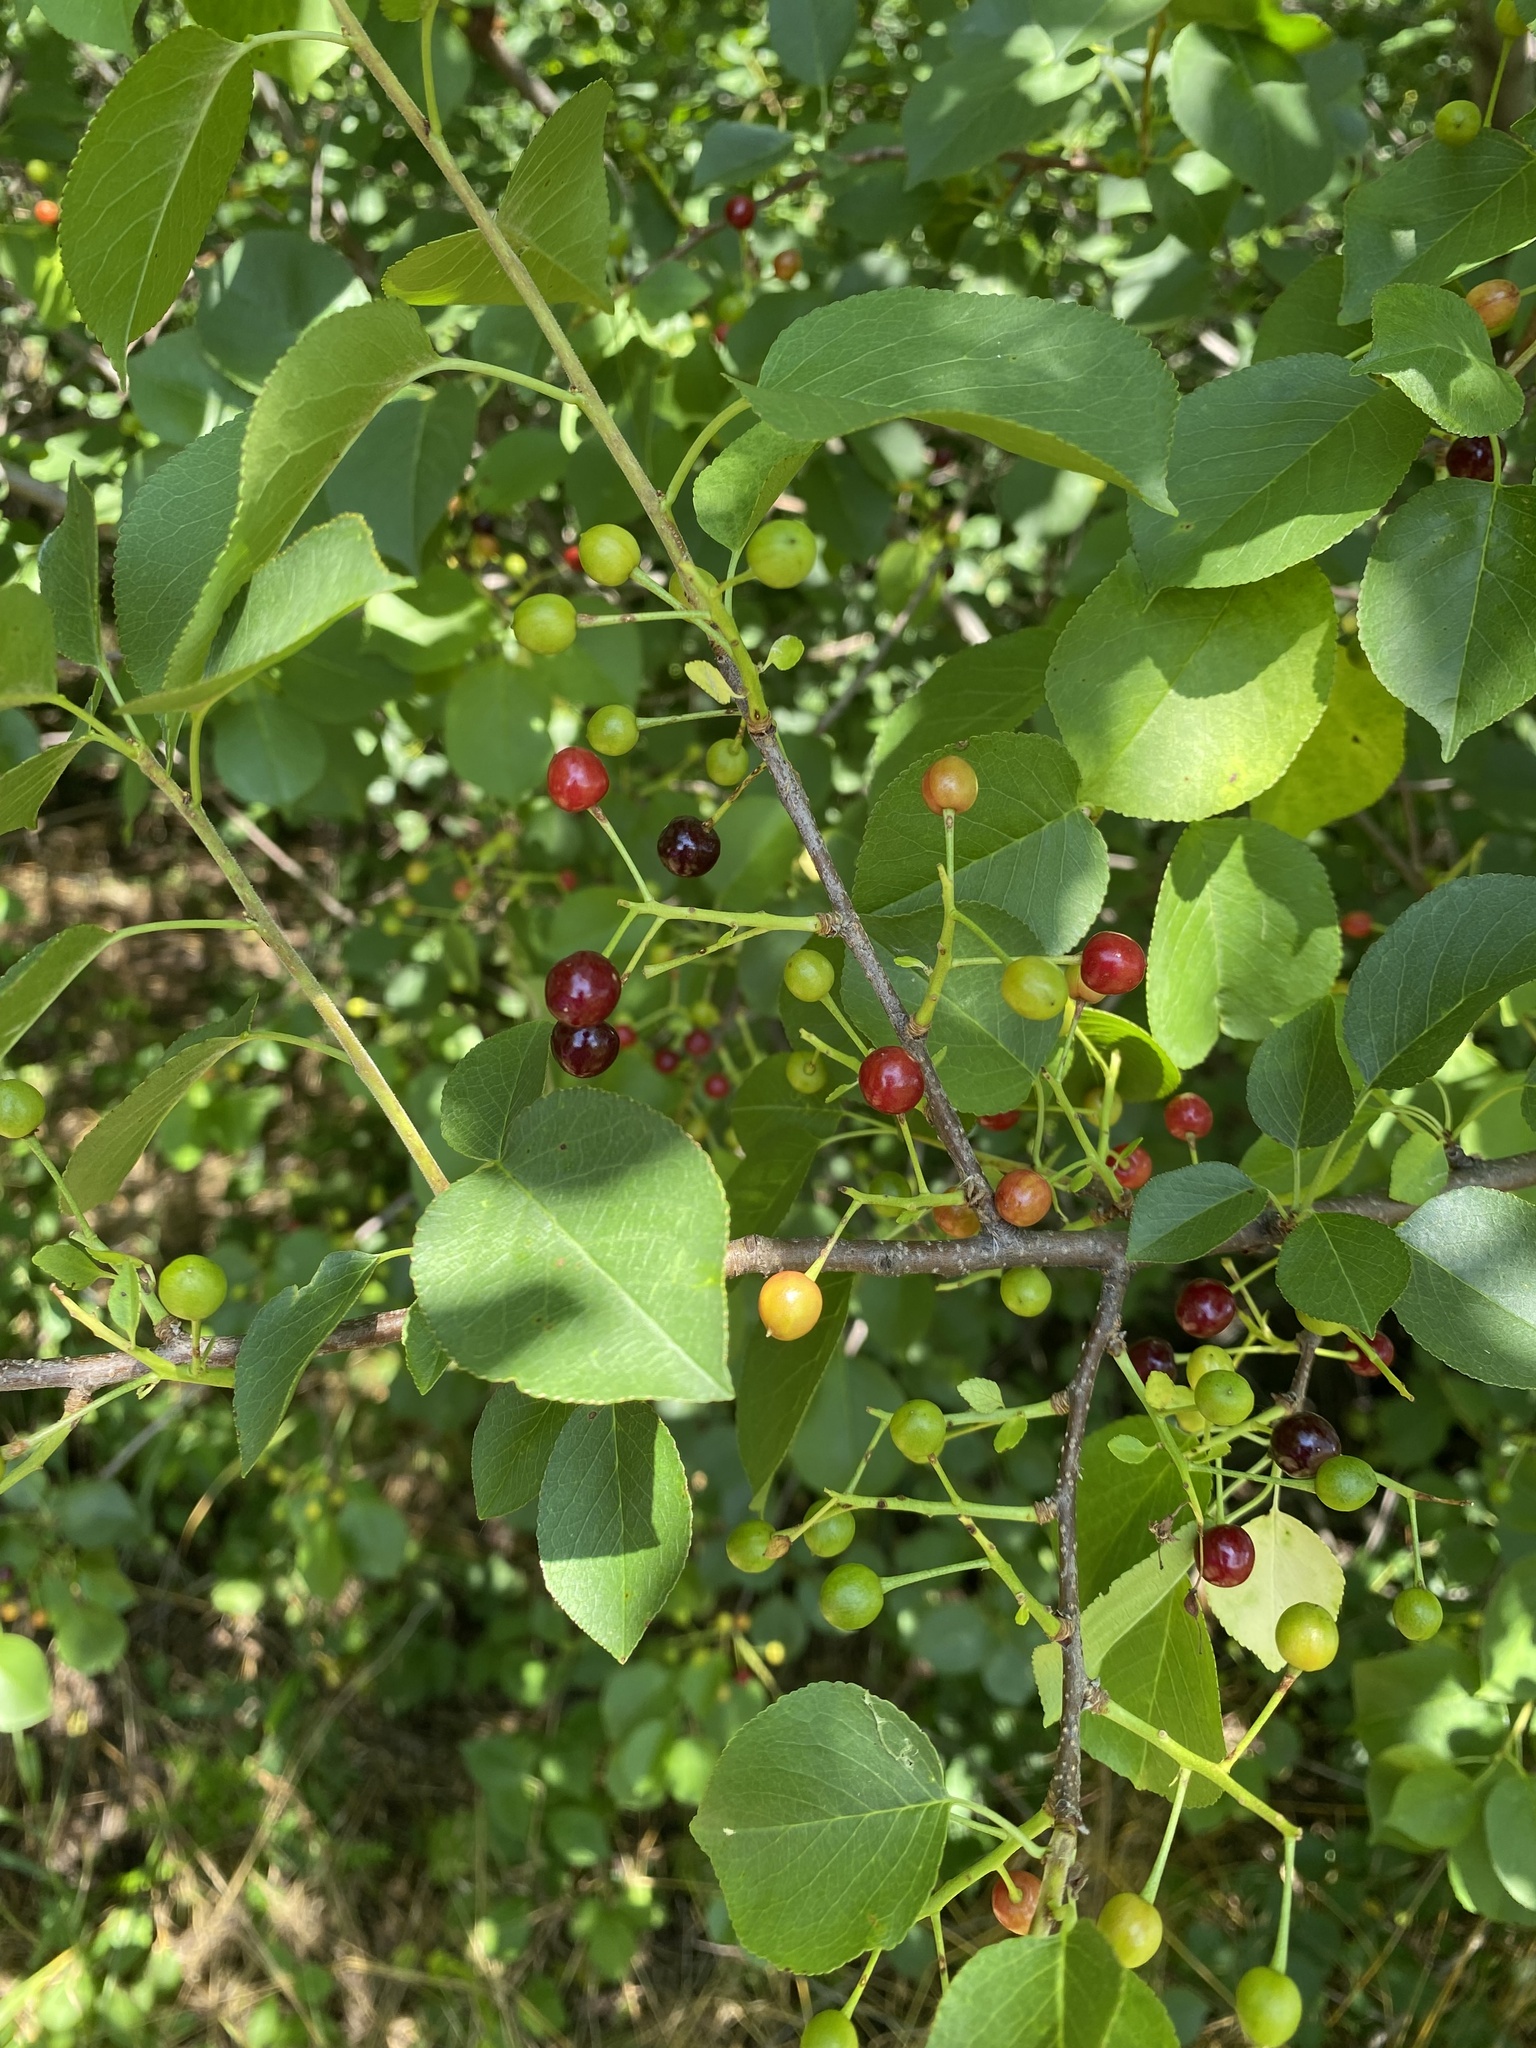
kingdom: Plantae
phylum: Tracheophyta
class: Magnoliopsida
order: Rosales
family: Rosaceae
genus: Prunus
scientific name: Prunus mahaleb
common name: Mahaleb cherry
